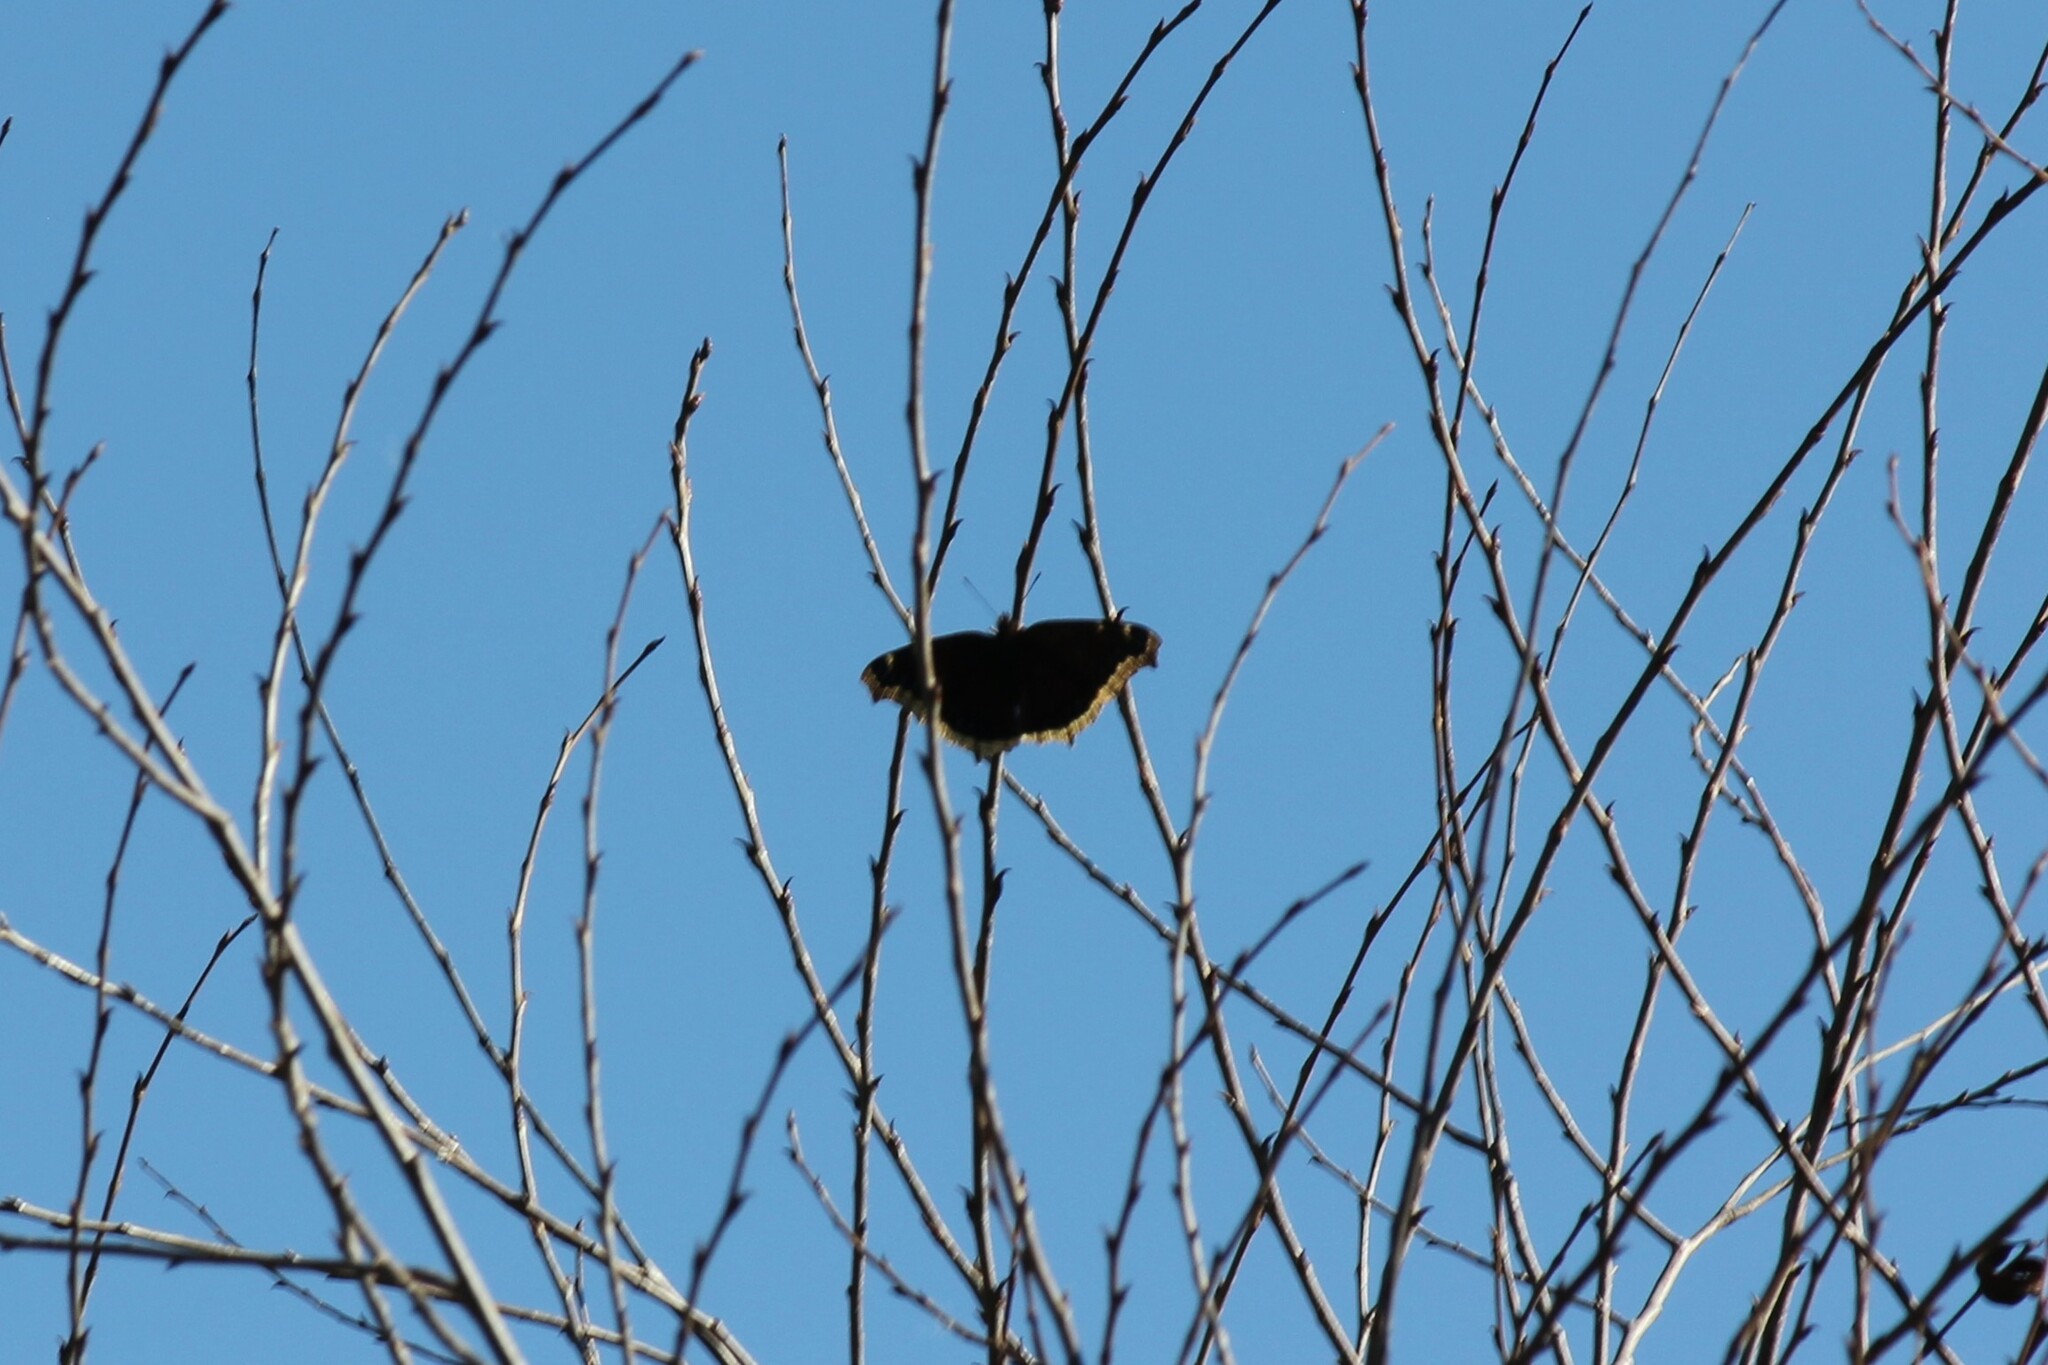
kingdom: Animalia
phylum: Arthropoda
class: Insecta
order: Lepidoptera
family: Nymphalidae
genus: Nymphalis
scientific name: Nymphalis antiopa
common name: Camberwell beauty
